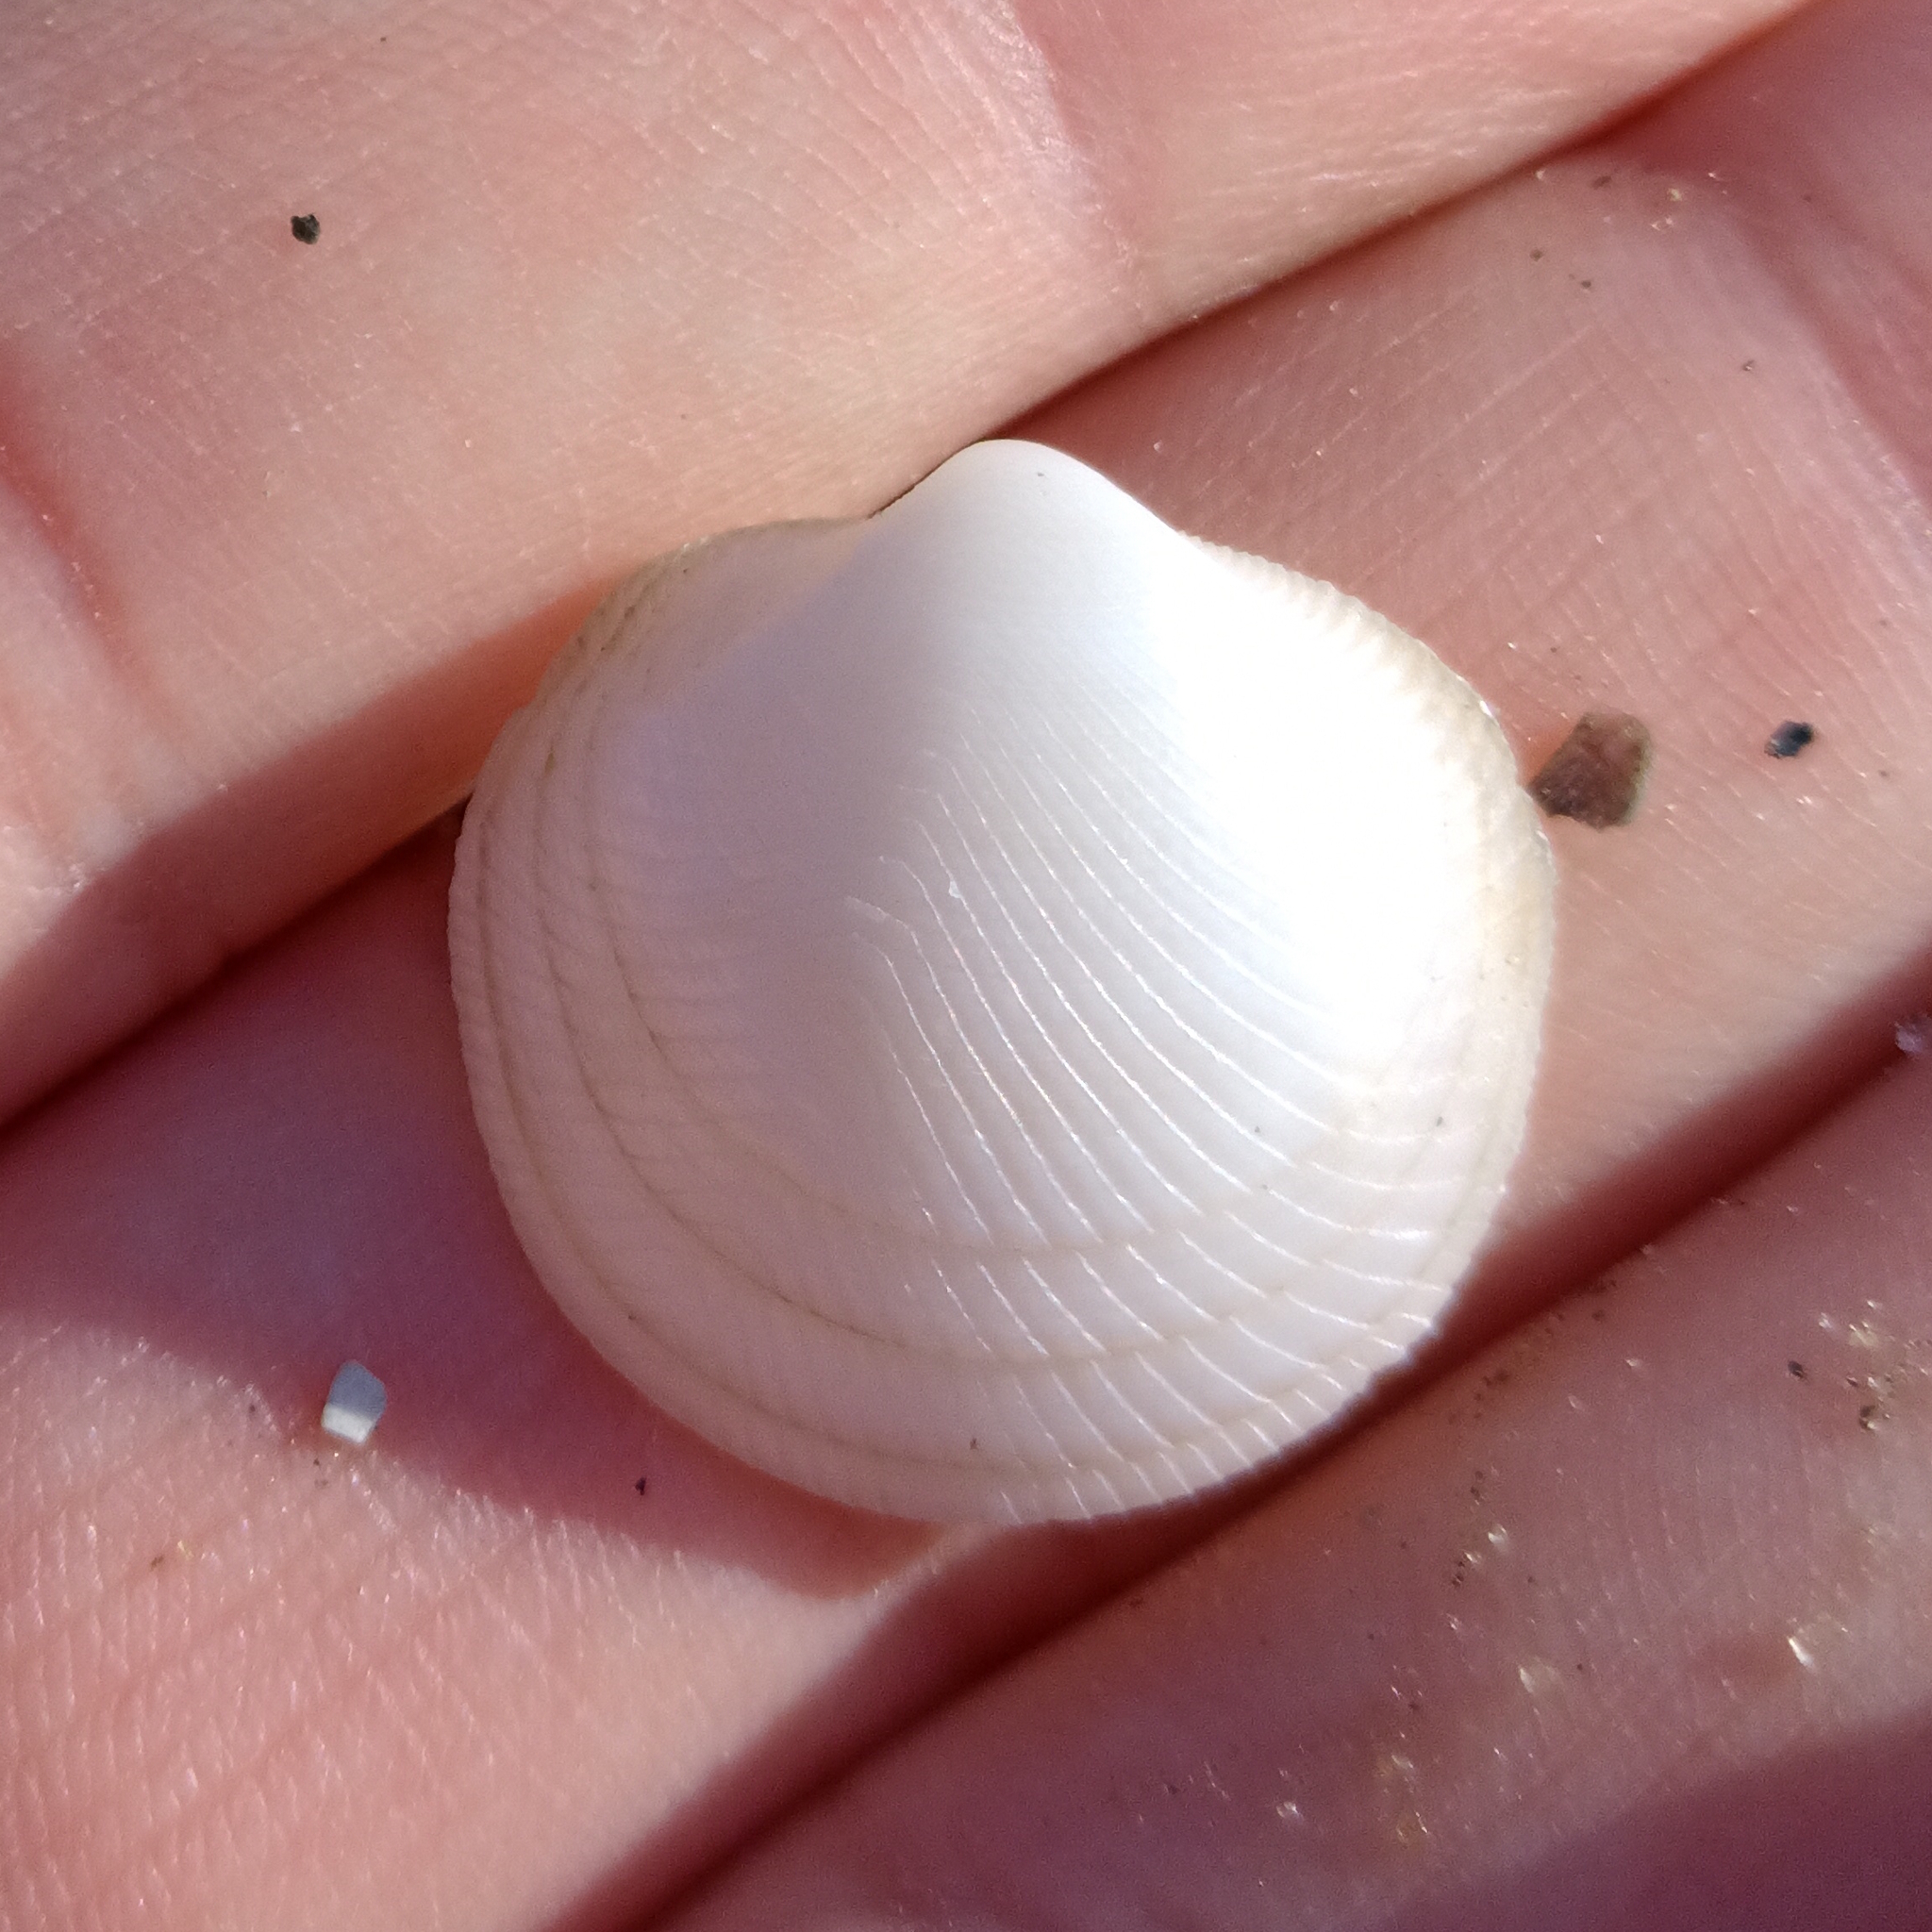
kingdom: Animalia
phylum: Mollusca
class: Bivalvia
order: Lucinida
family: Lucinidae
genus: Divalinga
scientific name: Divalinga quadrisulcata
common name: Cross-hatched lucine
